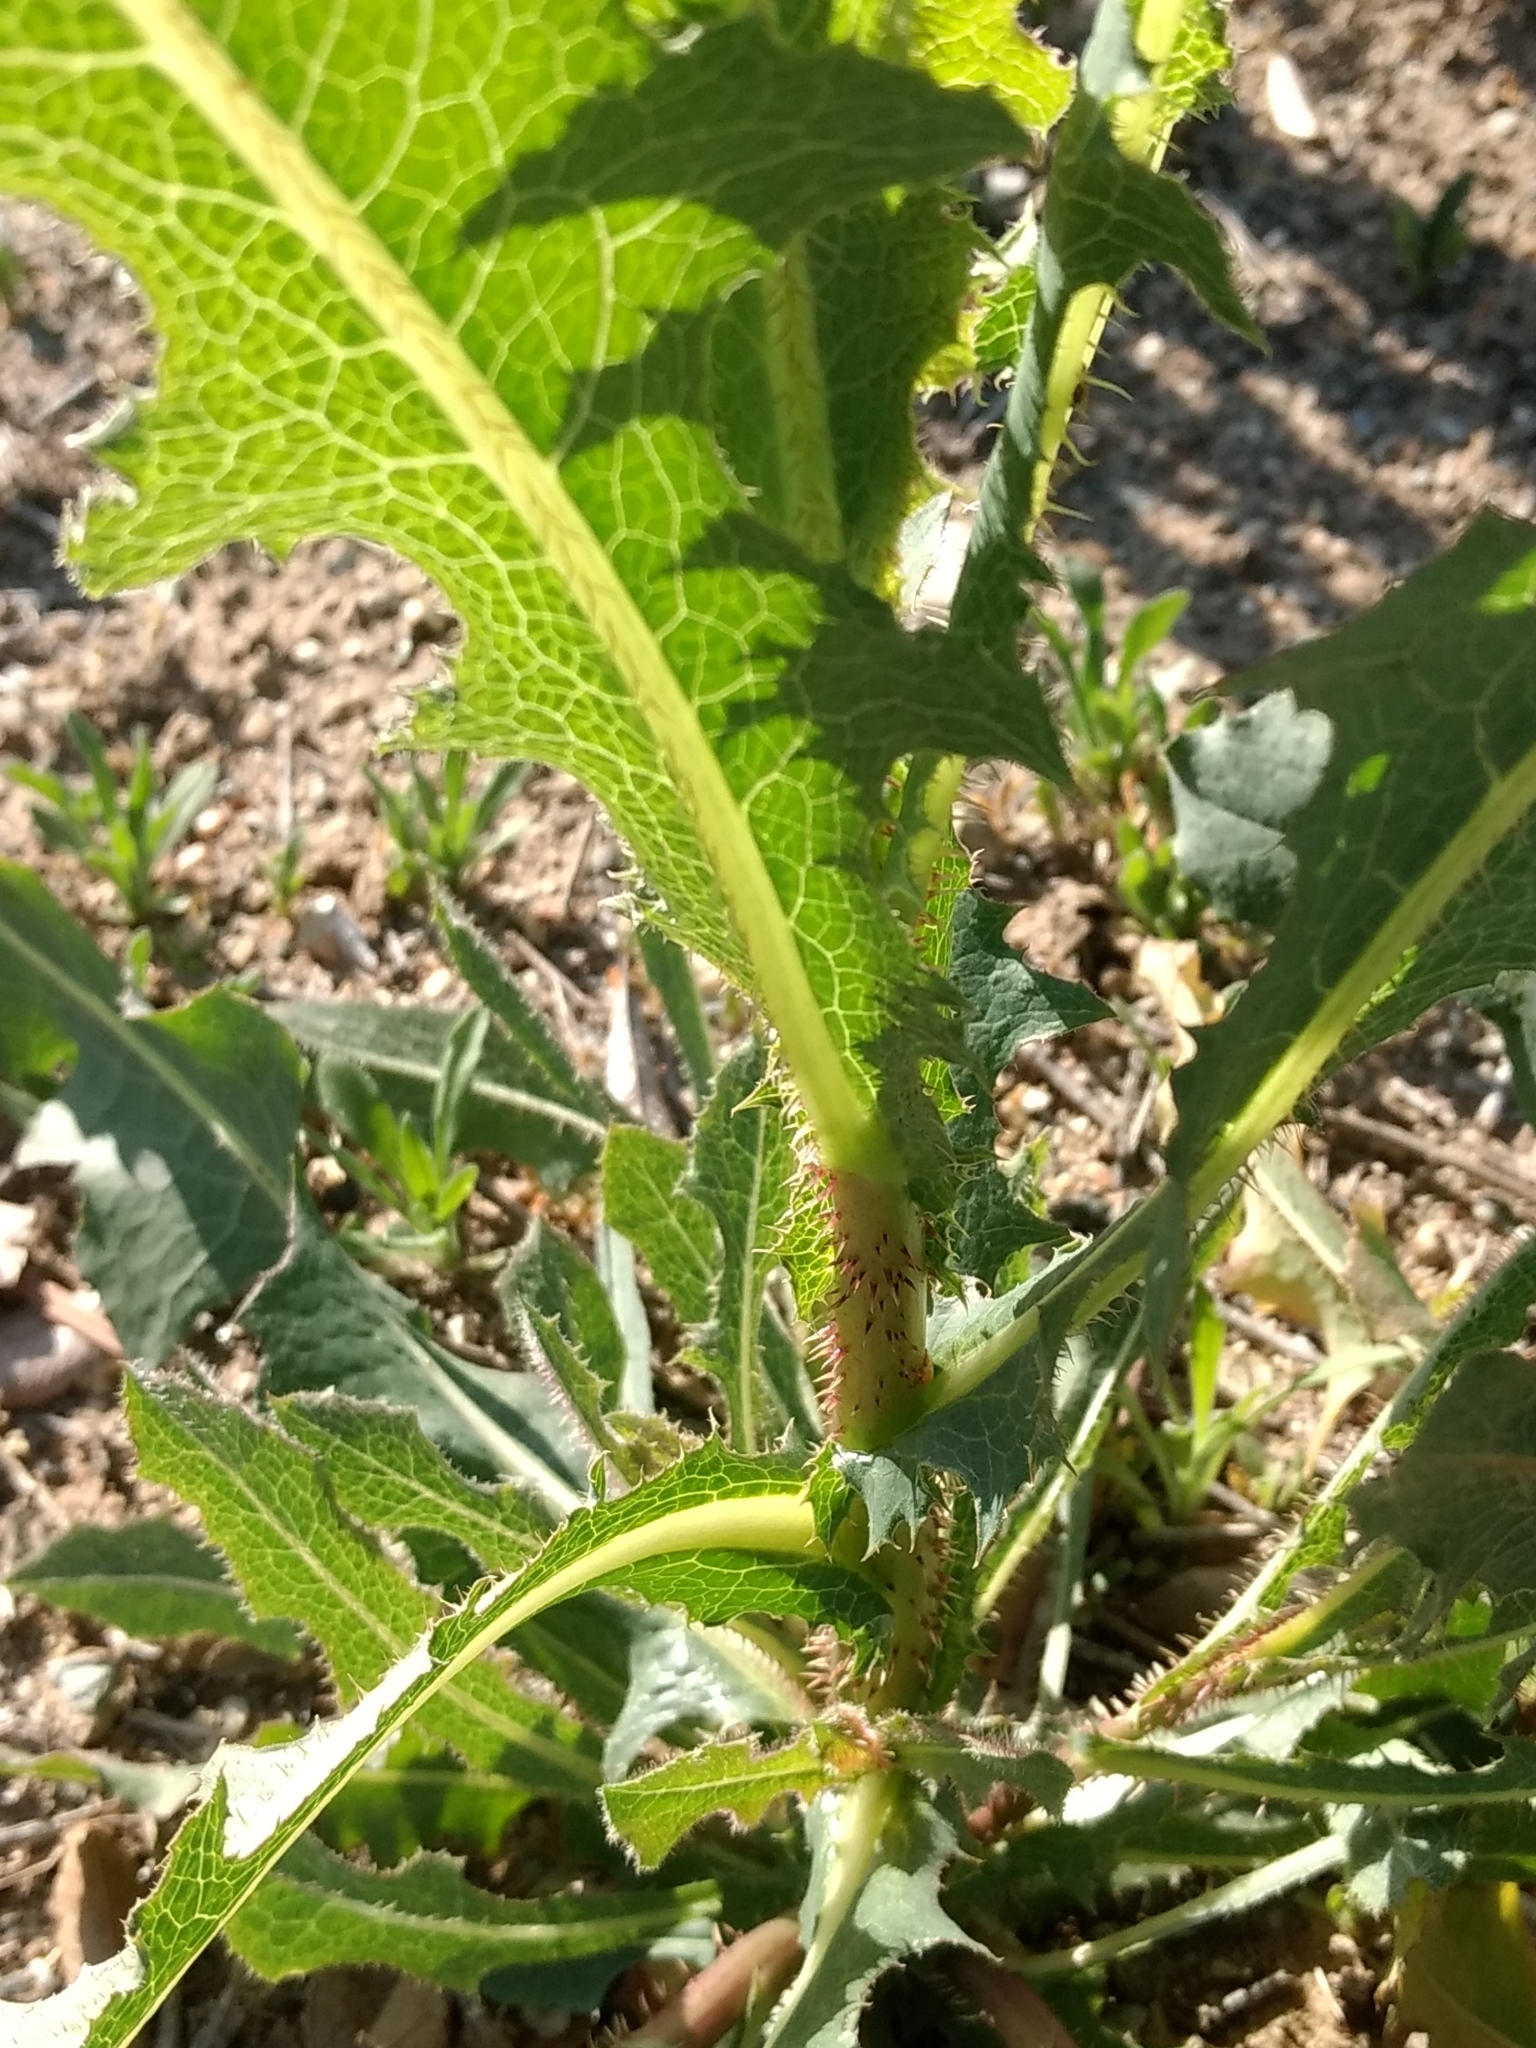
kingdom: Plantae
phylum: Tracheophyta
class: Magnoliopsida
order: Asterales
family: Asteraceae
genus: Lactuca
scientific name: Lactuca serriola
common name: Prickly lettuce
